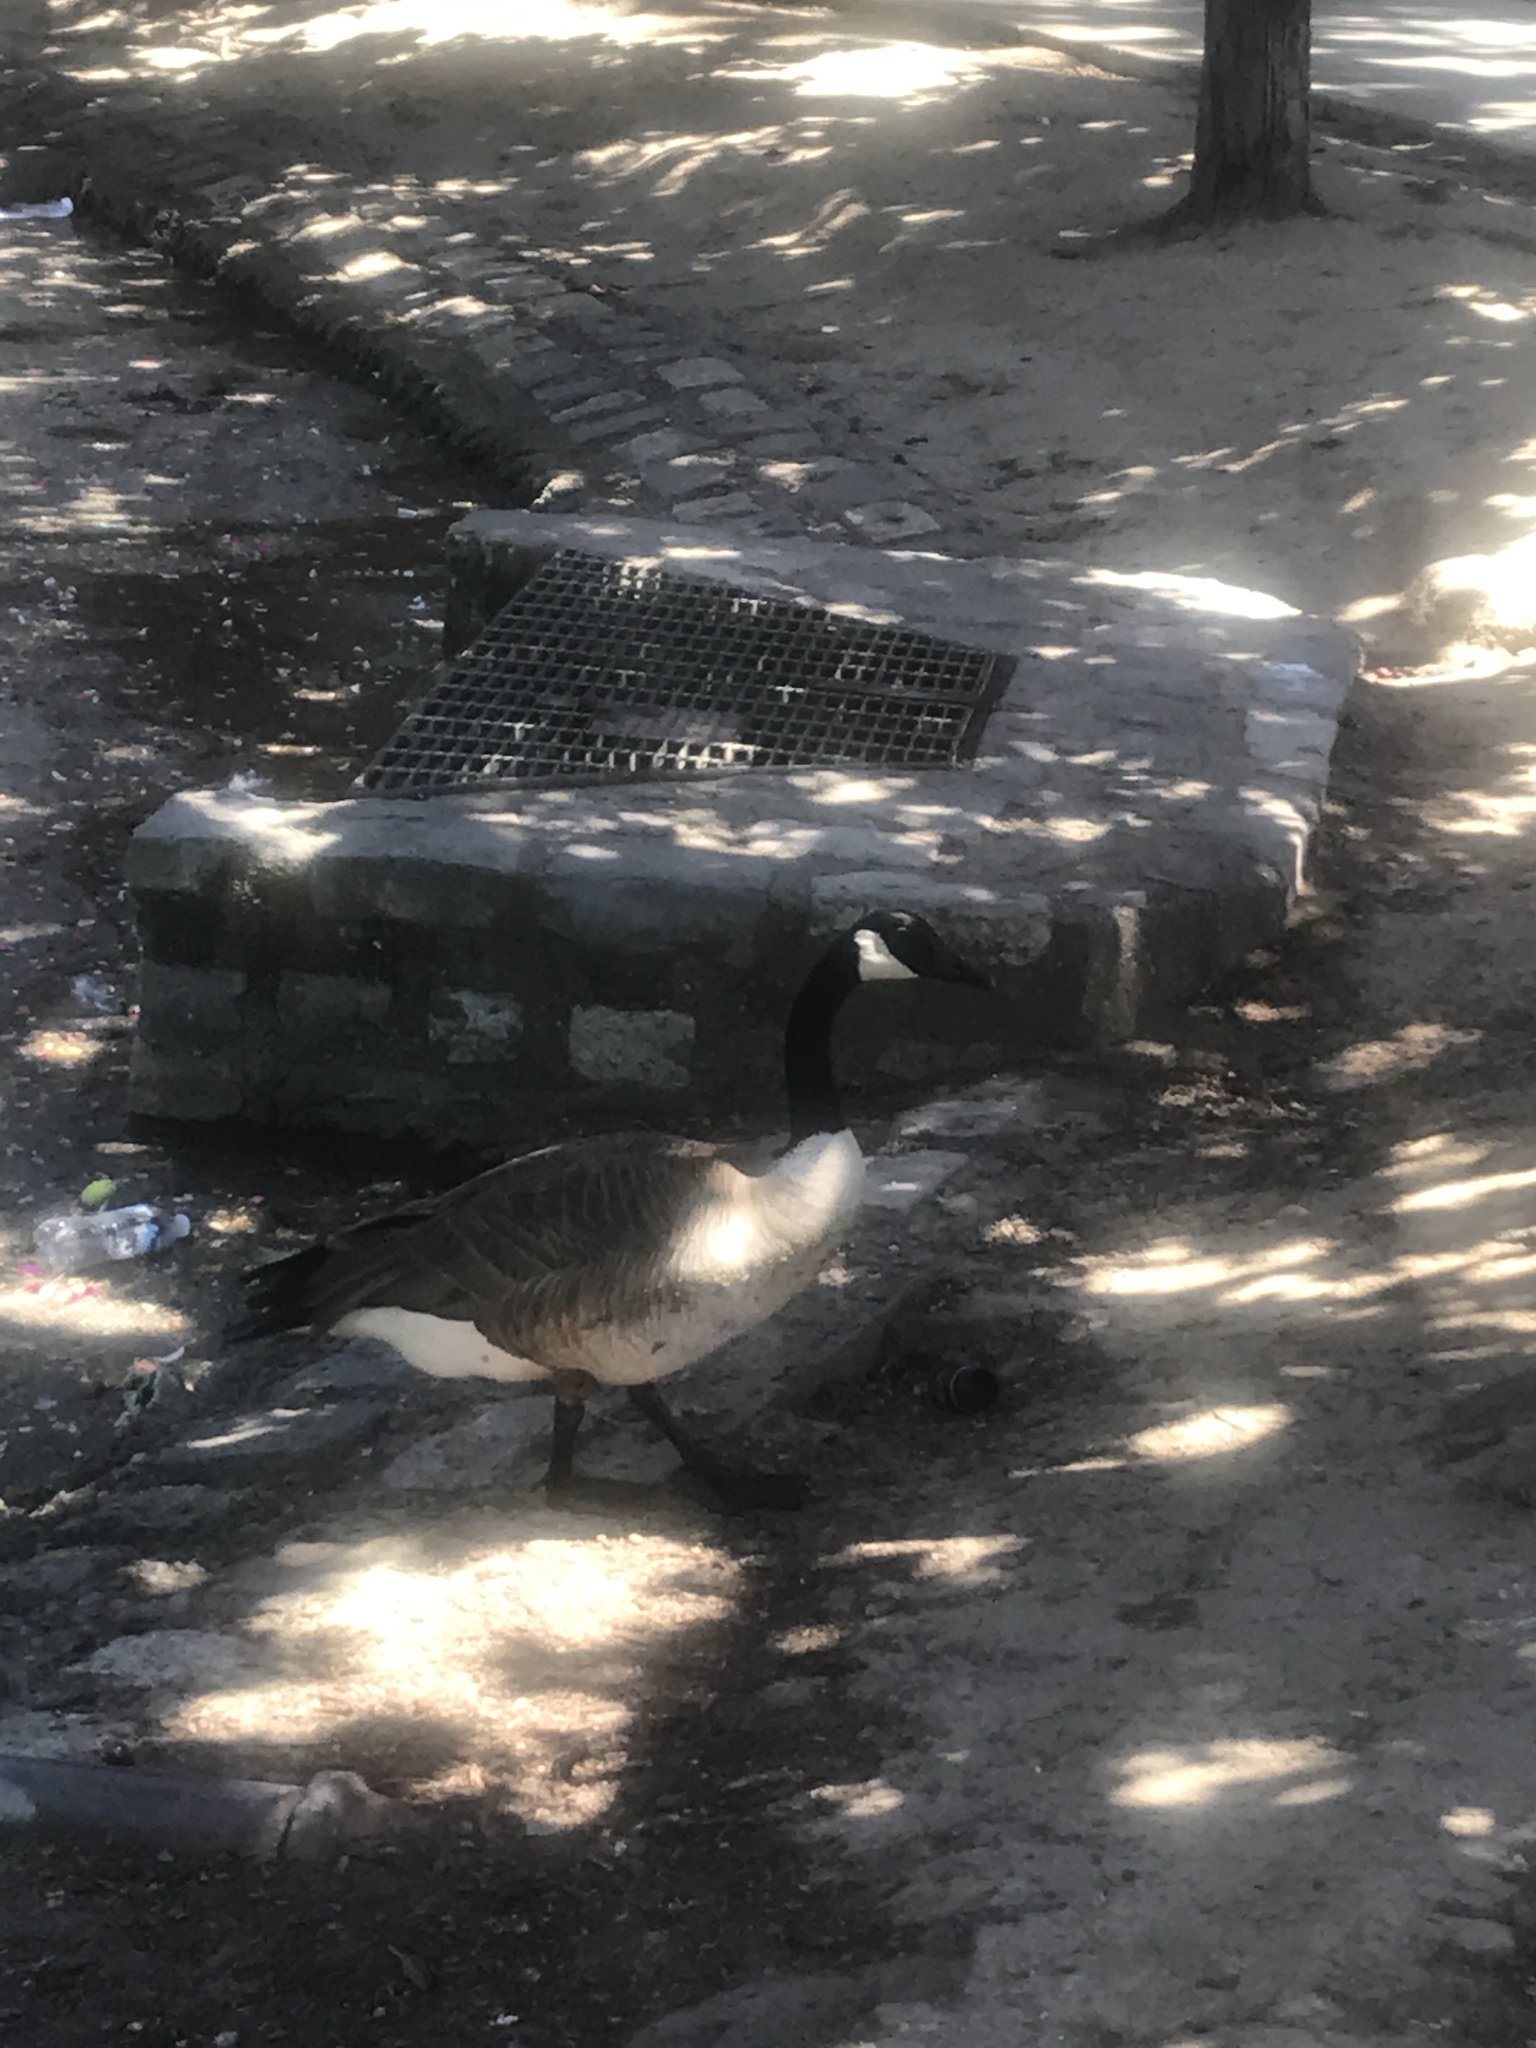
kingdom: Animalia
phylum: Chordata
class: Aves
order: Anseriformes
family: Anatidae
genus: Branta
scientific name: Branta canadensis
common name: Canada goose
